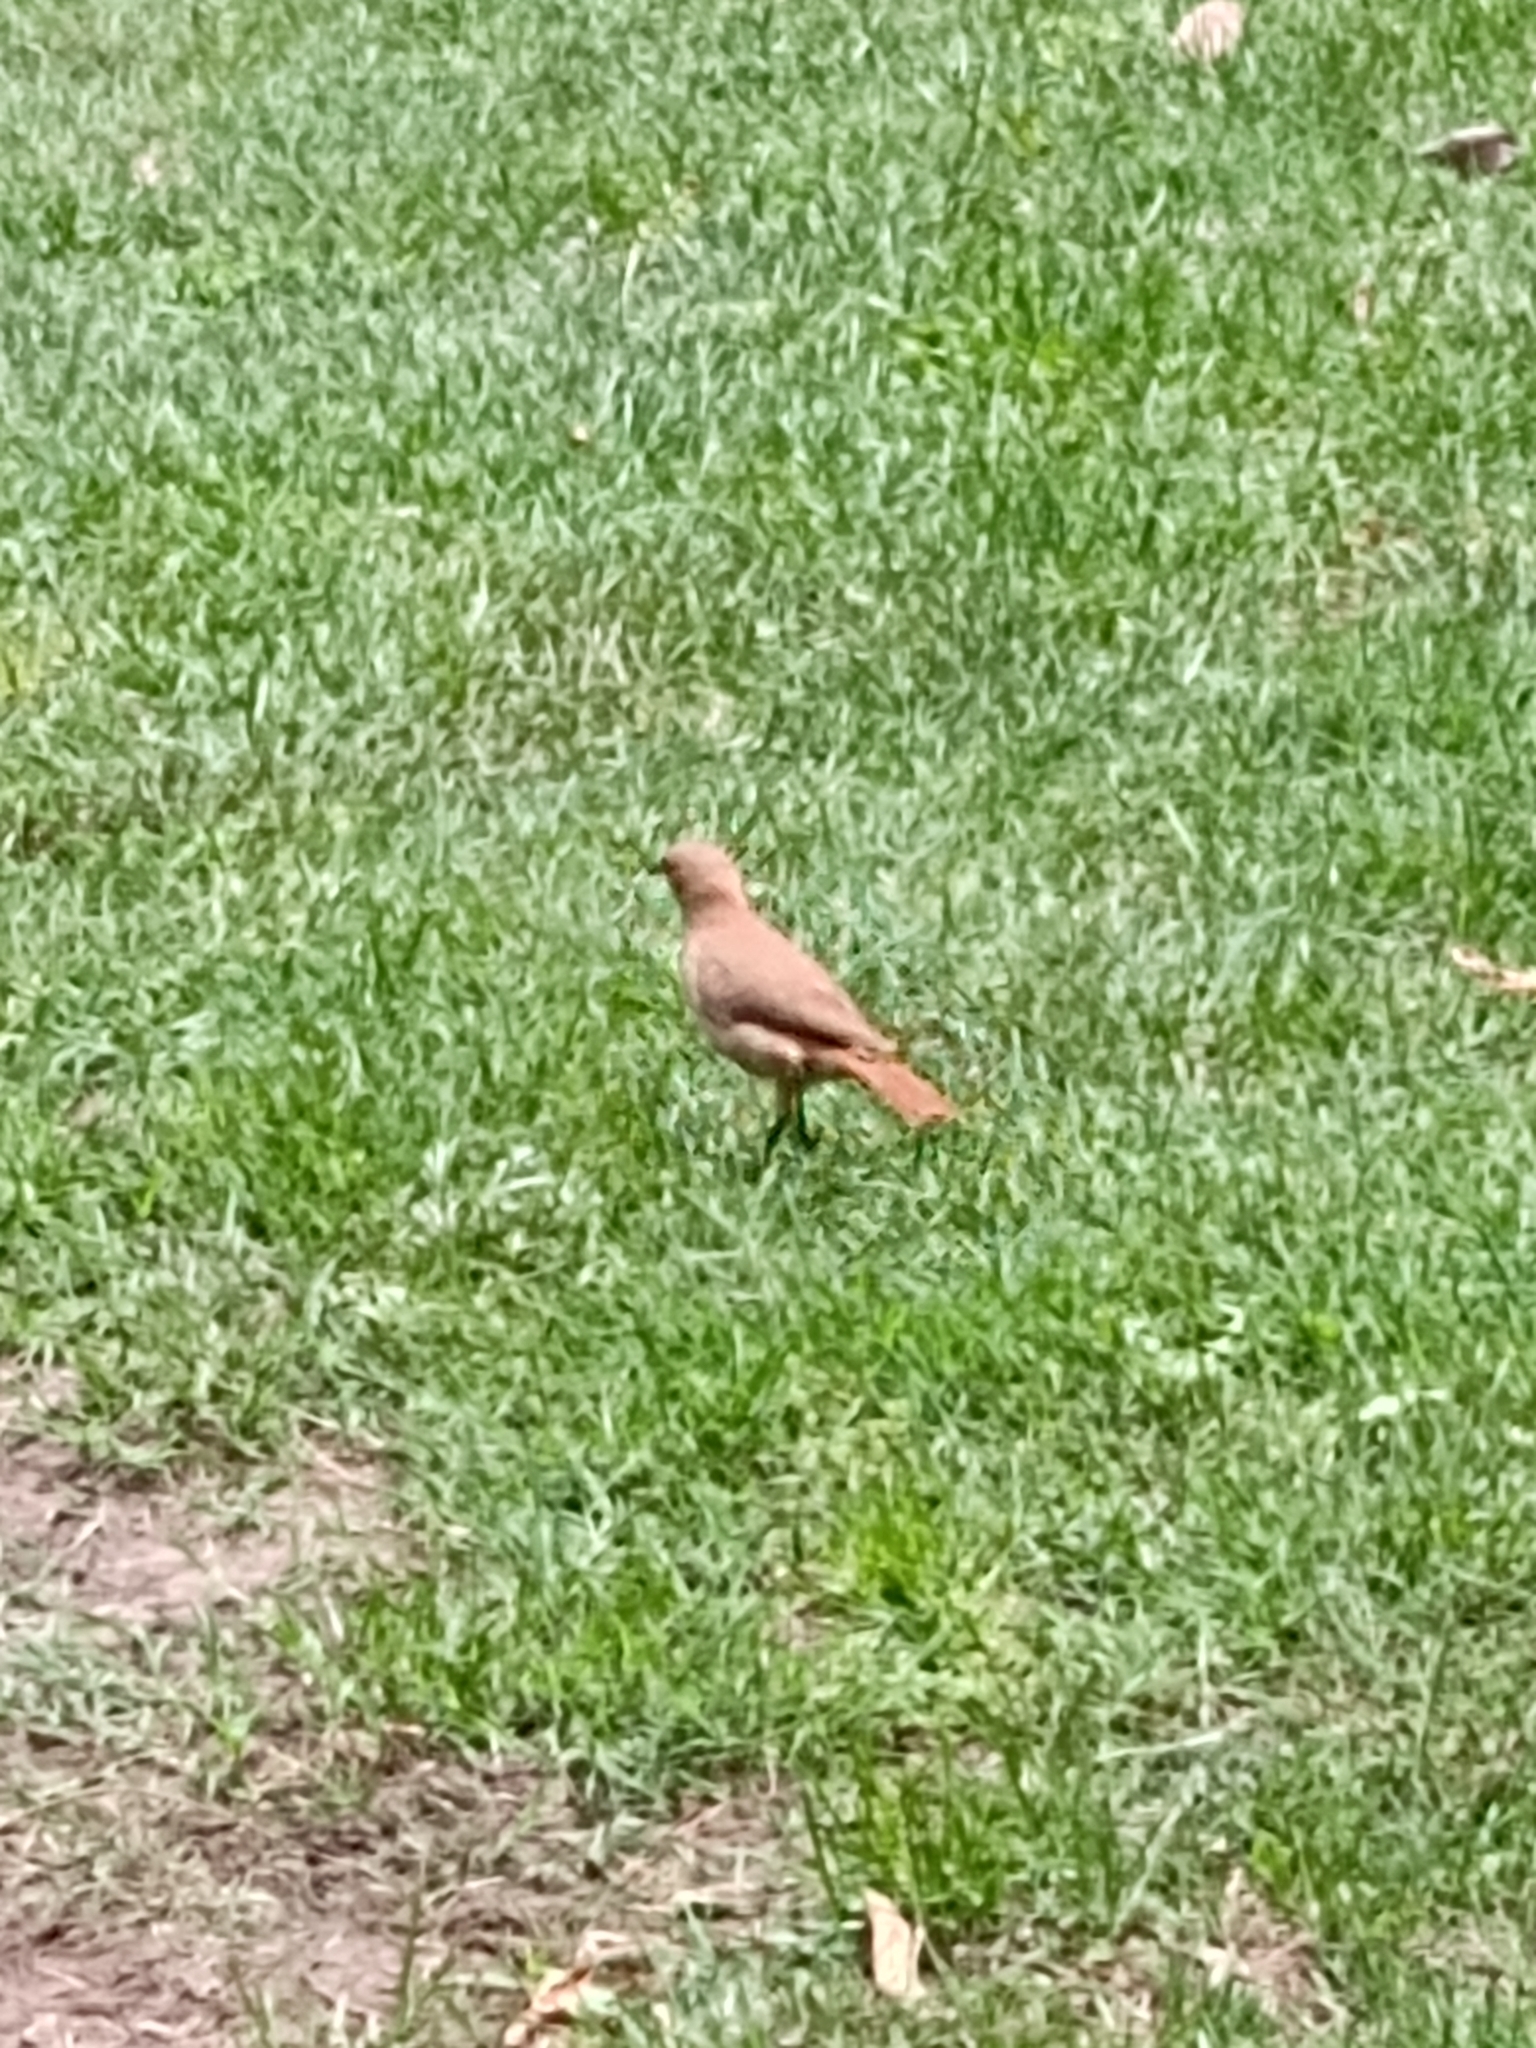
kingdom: Animalia
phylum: Chordata
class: Aves
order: Passeriformes
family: Furnariidae
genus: Furnarius
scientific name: Furnarius rufus
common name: Rufous hornero
